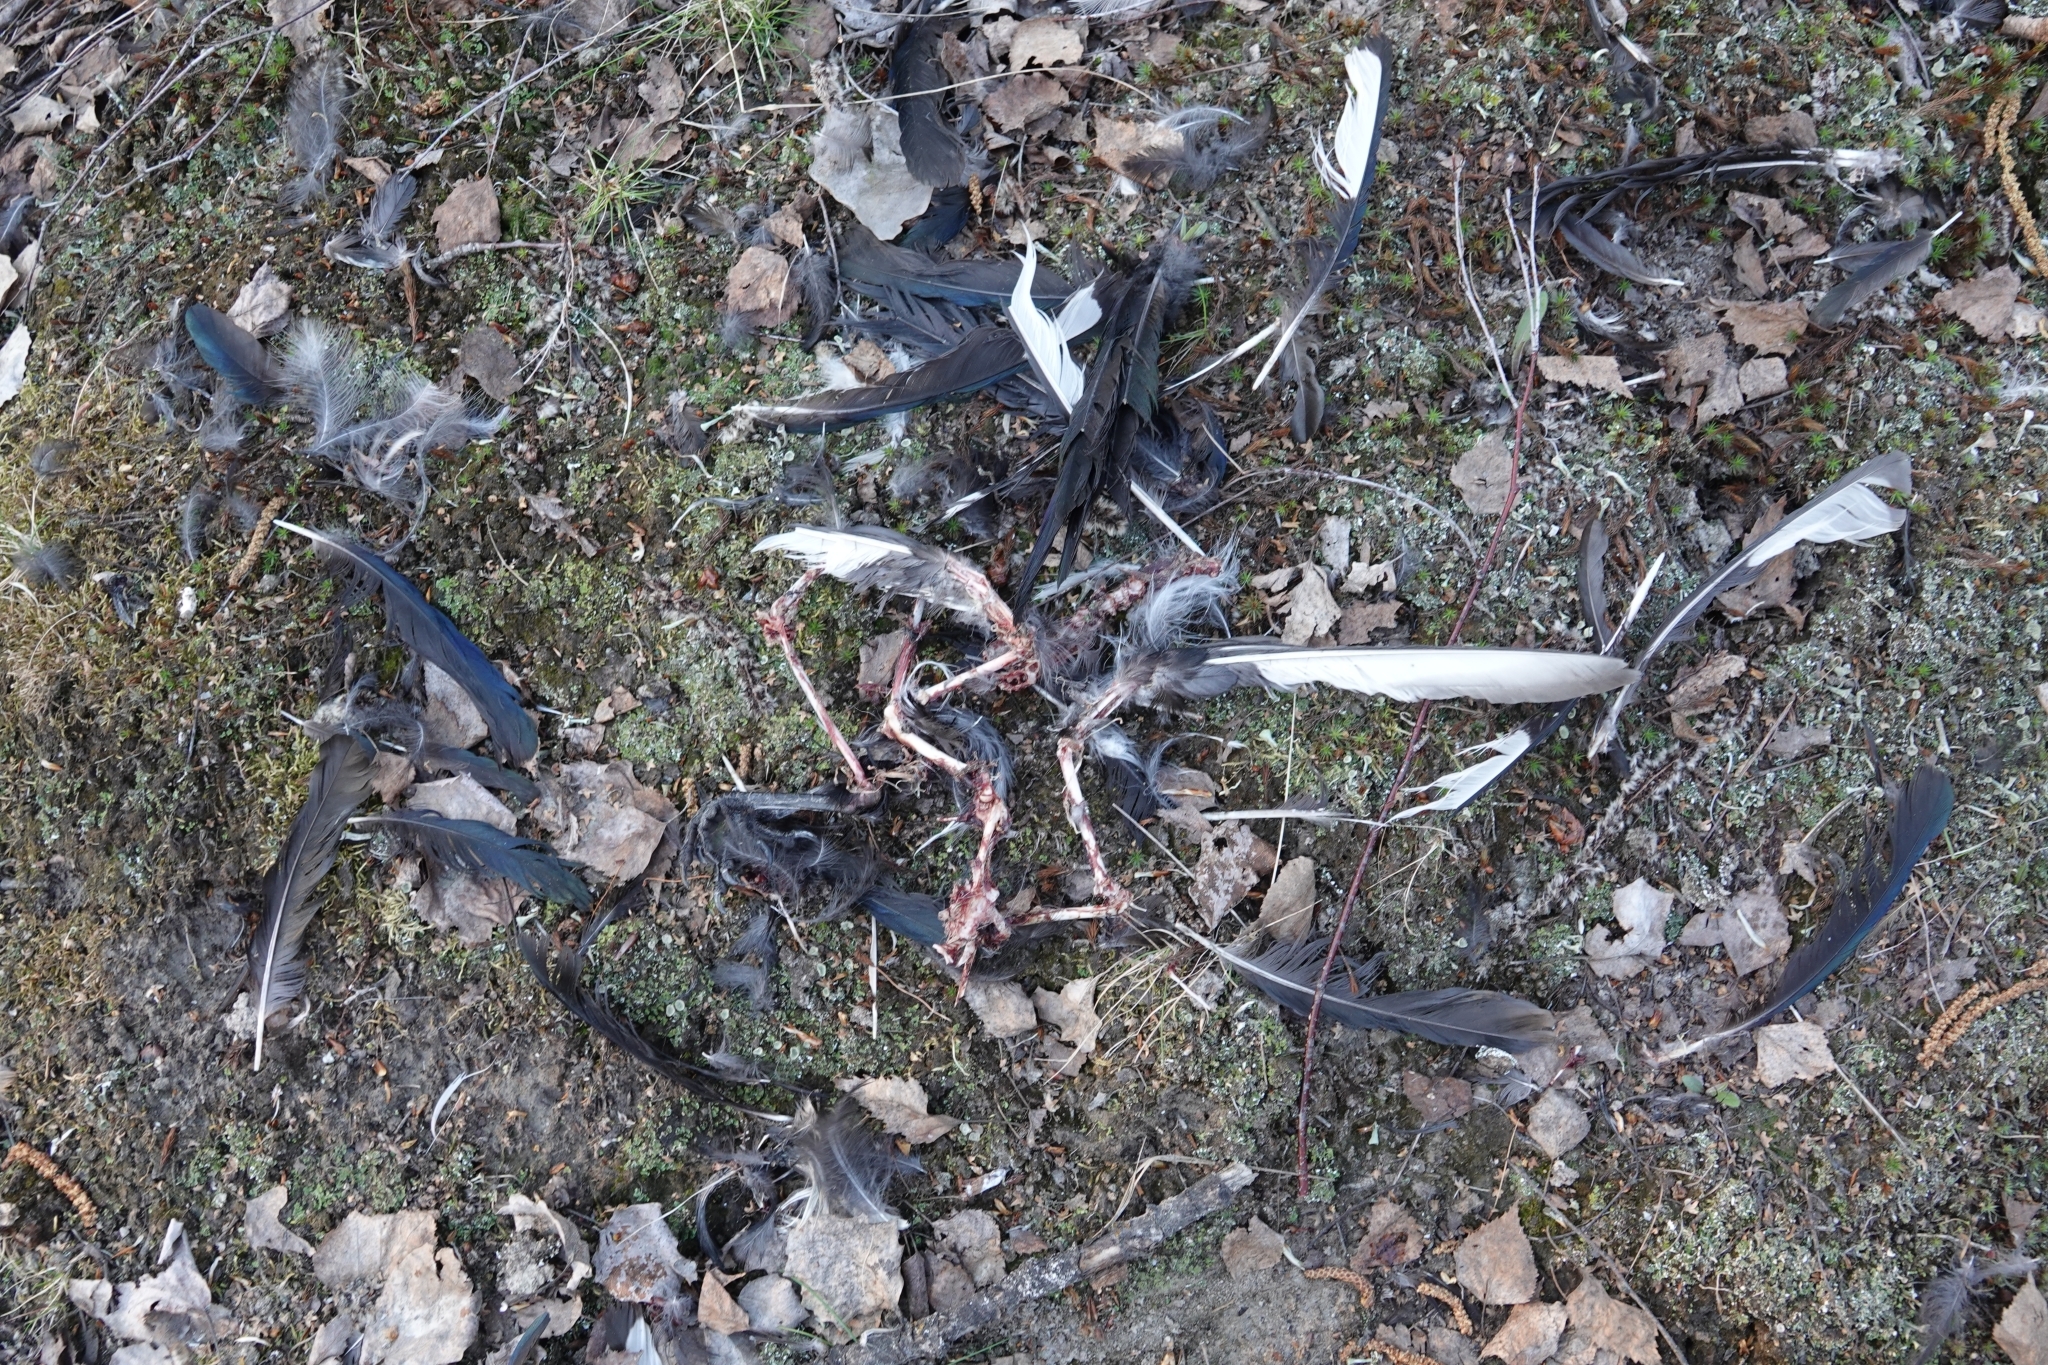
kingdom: Animalia
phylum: Chordata
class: Aves
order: Passeriformes
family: Corvidae
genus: Pica
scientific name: Pica pica
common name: Eurasian magpie
